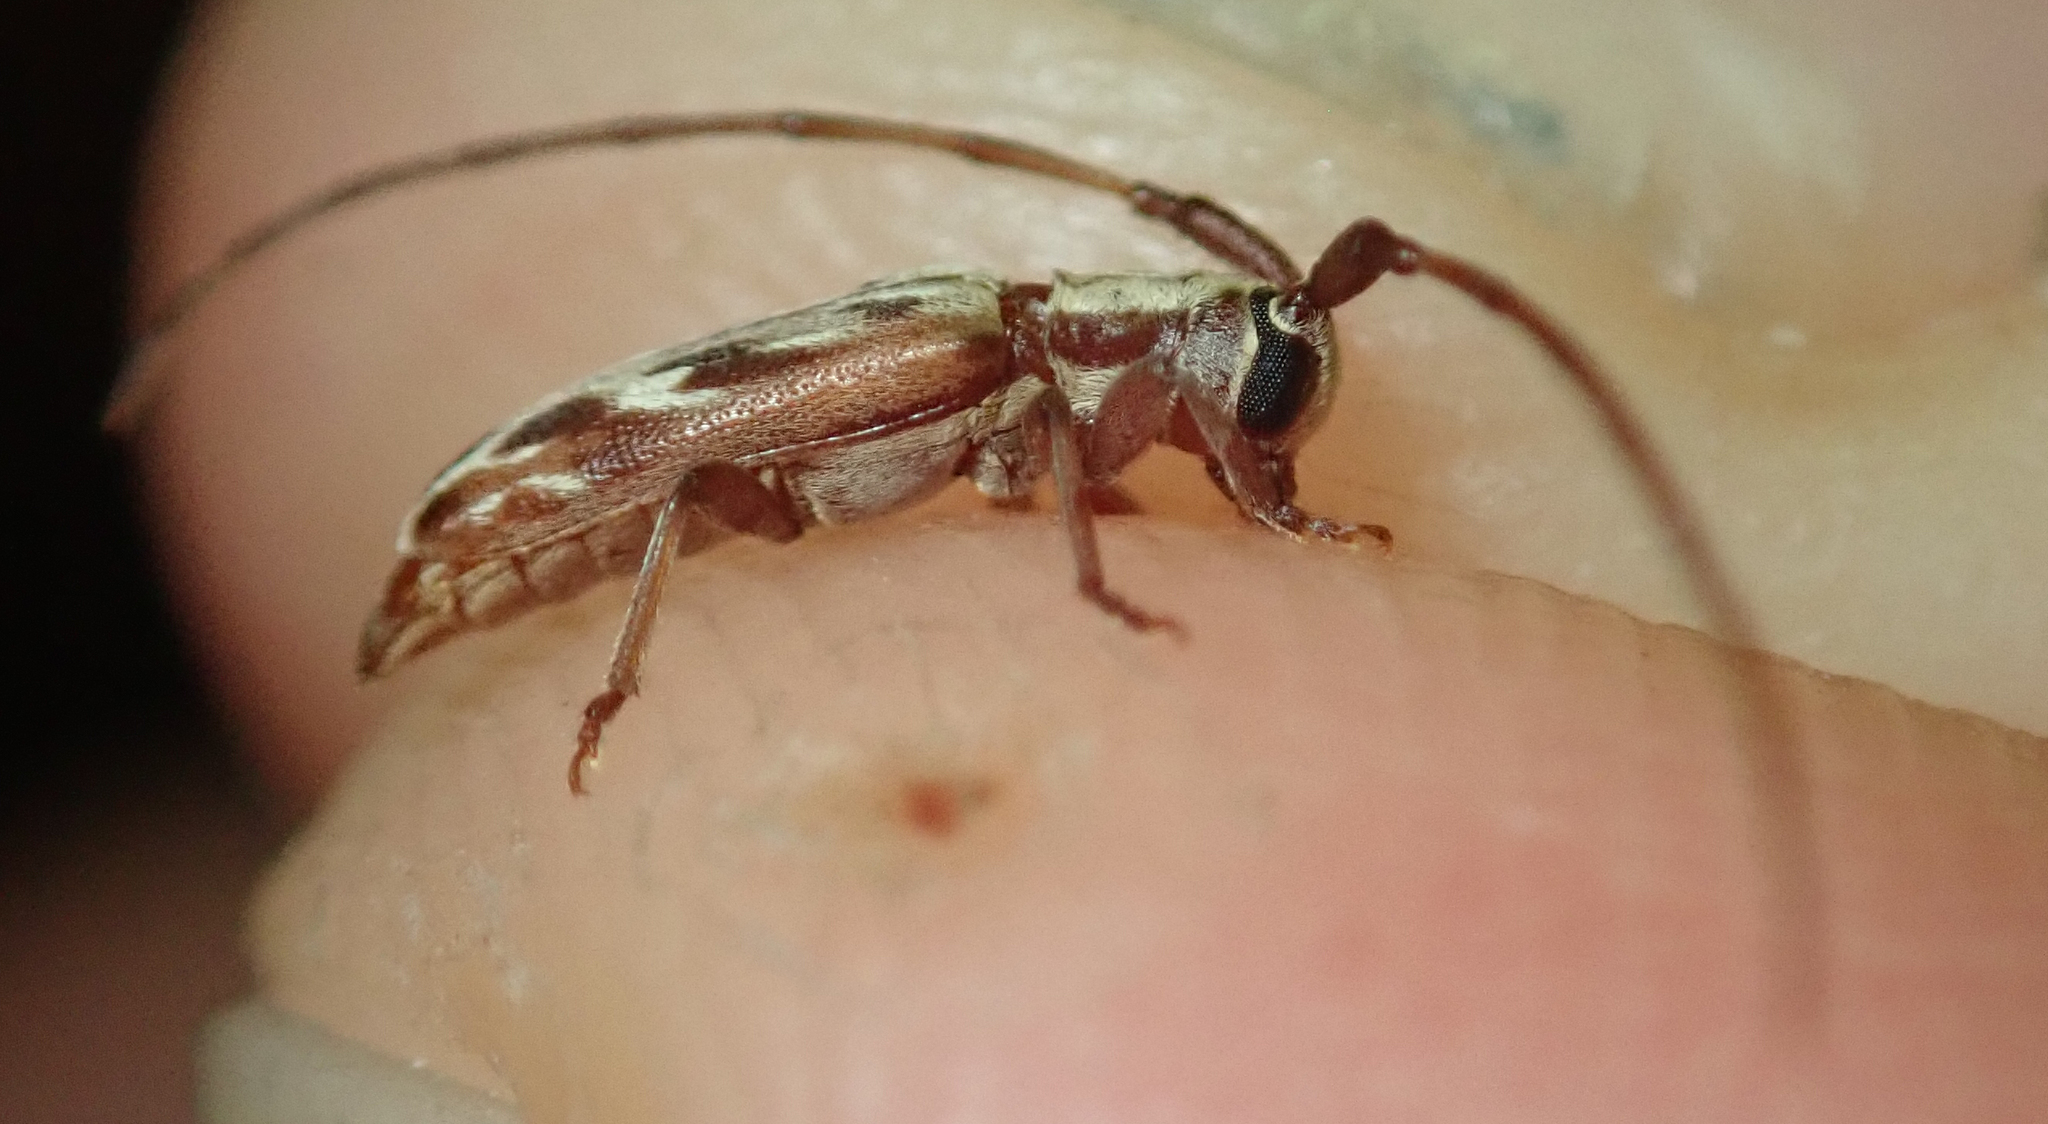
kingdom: Animalia
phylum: Arthropoda
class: Insecta
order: Coleoptera
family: Cerambycidae
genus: Eunidia
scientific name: Eunidia strigata
